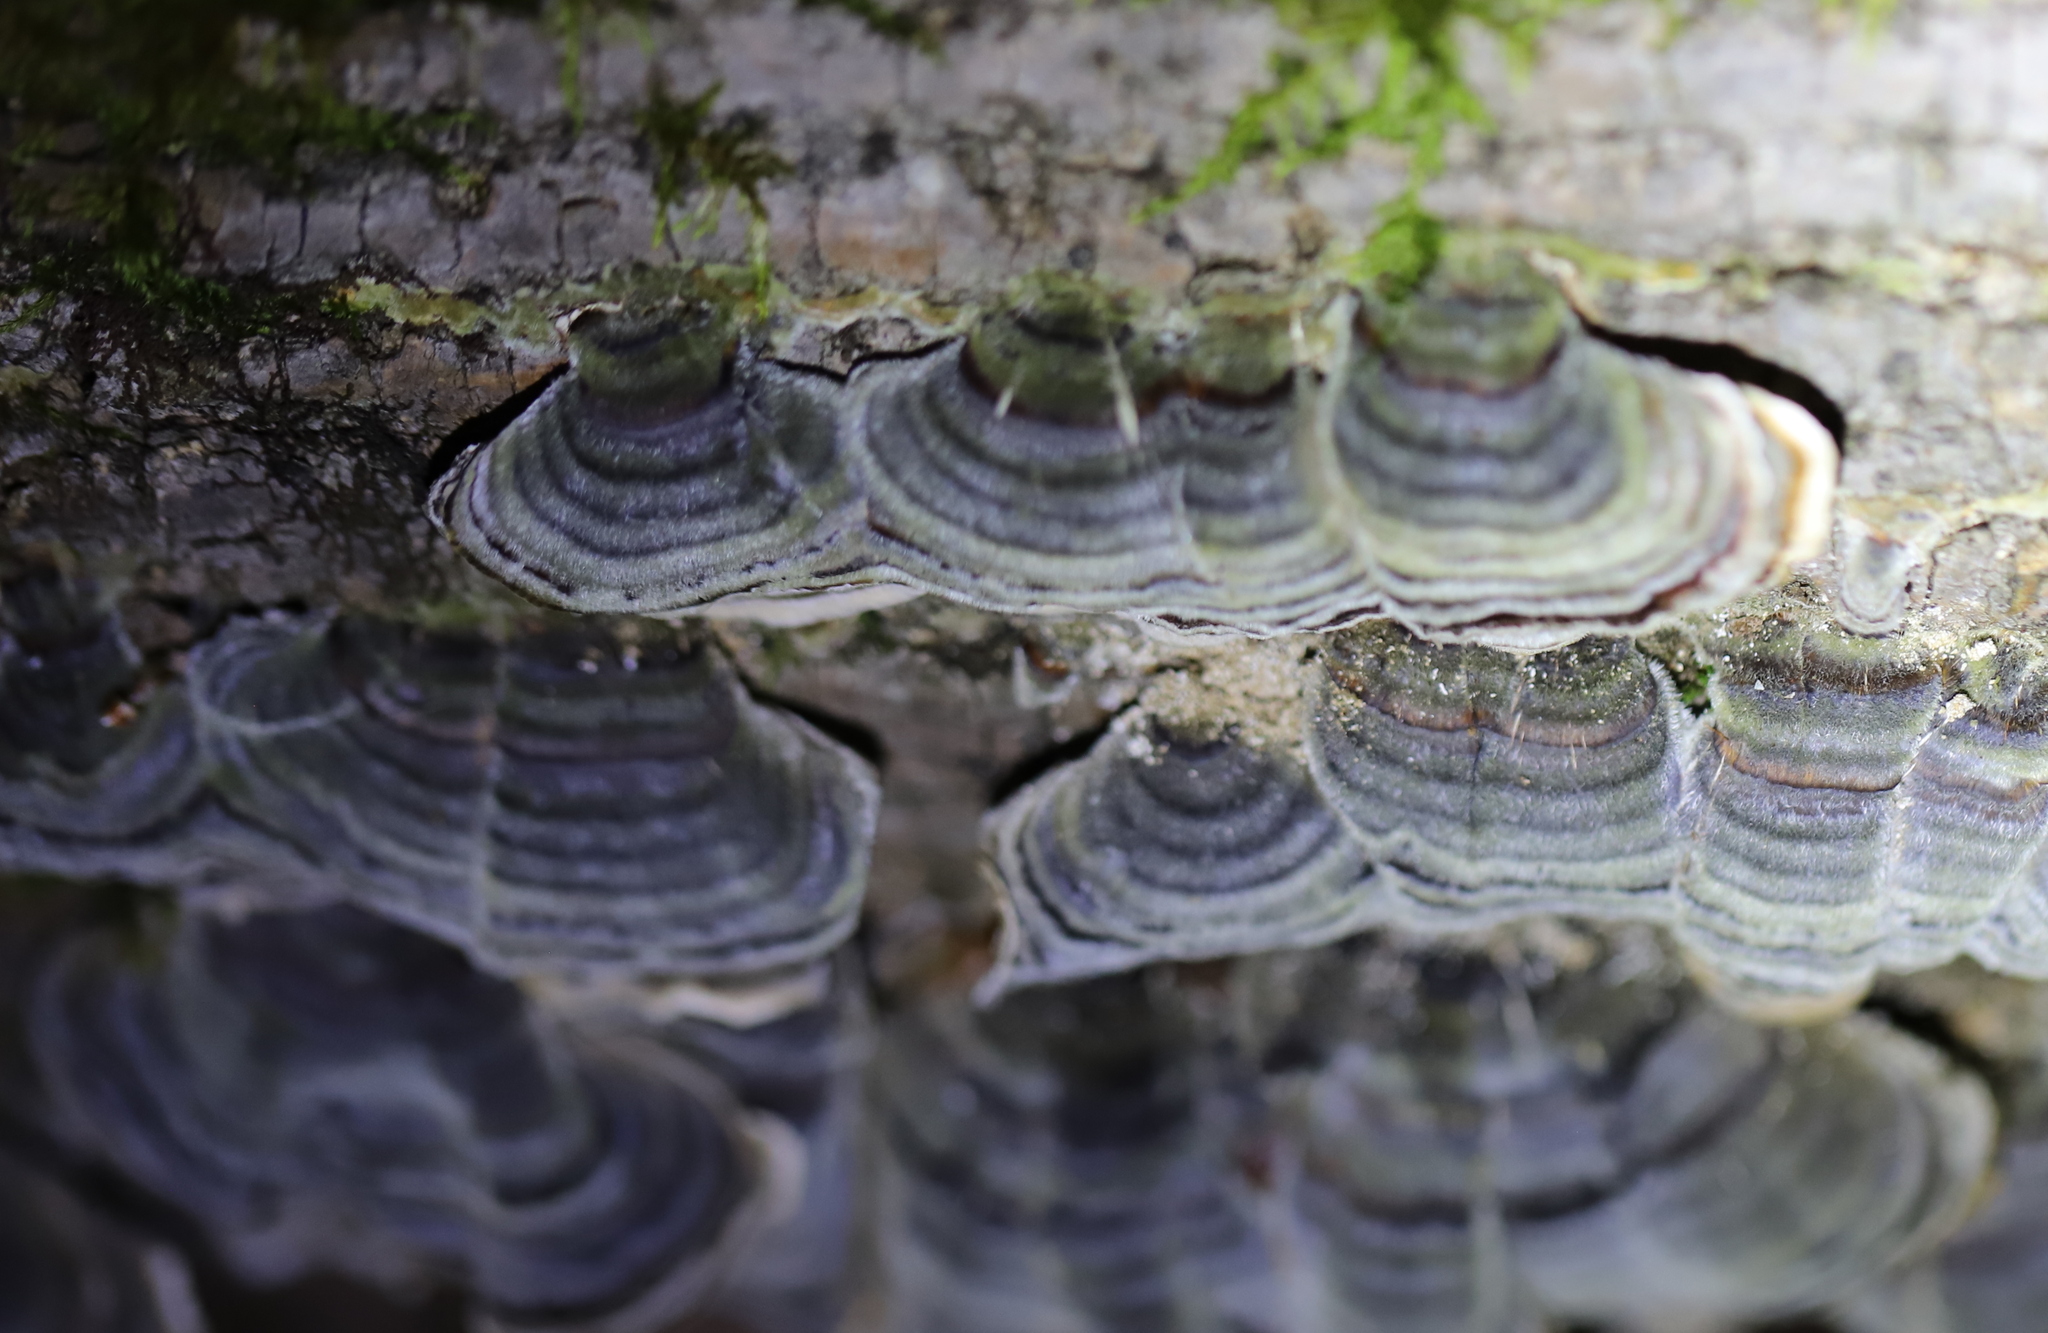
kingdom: Fungi
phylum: Basidiomycota
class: Agaricomycetes
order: Polyporales
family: Polyporaceae
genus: Trametes
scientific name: Trametes versicolor
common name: Turkeytail
